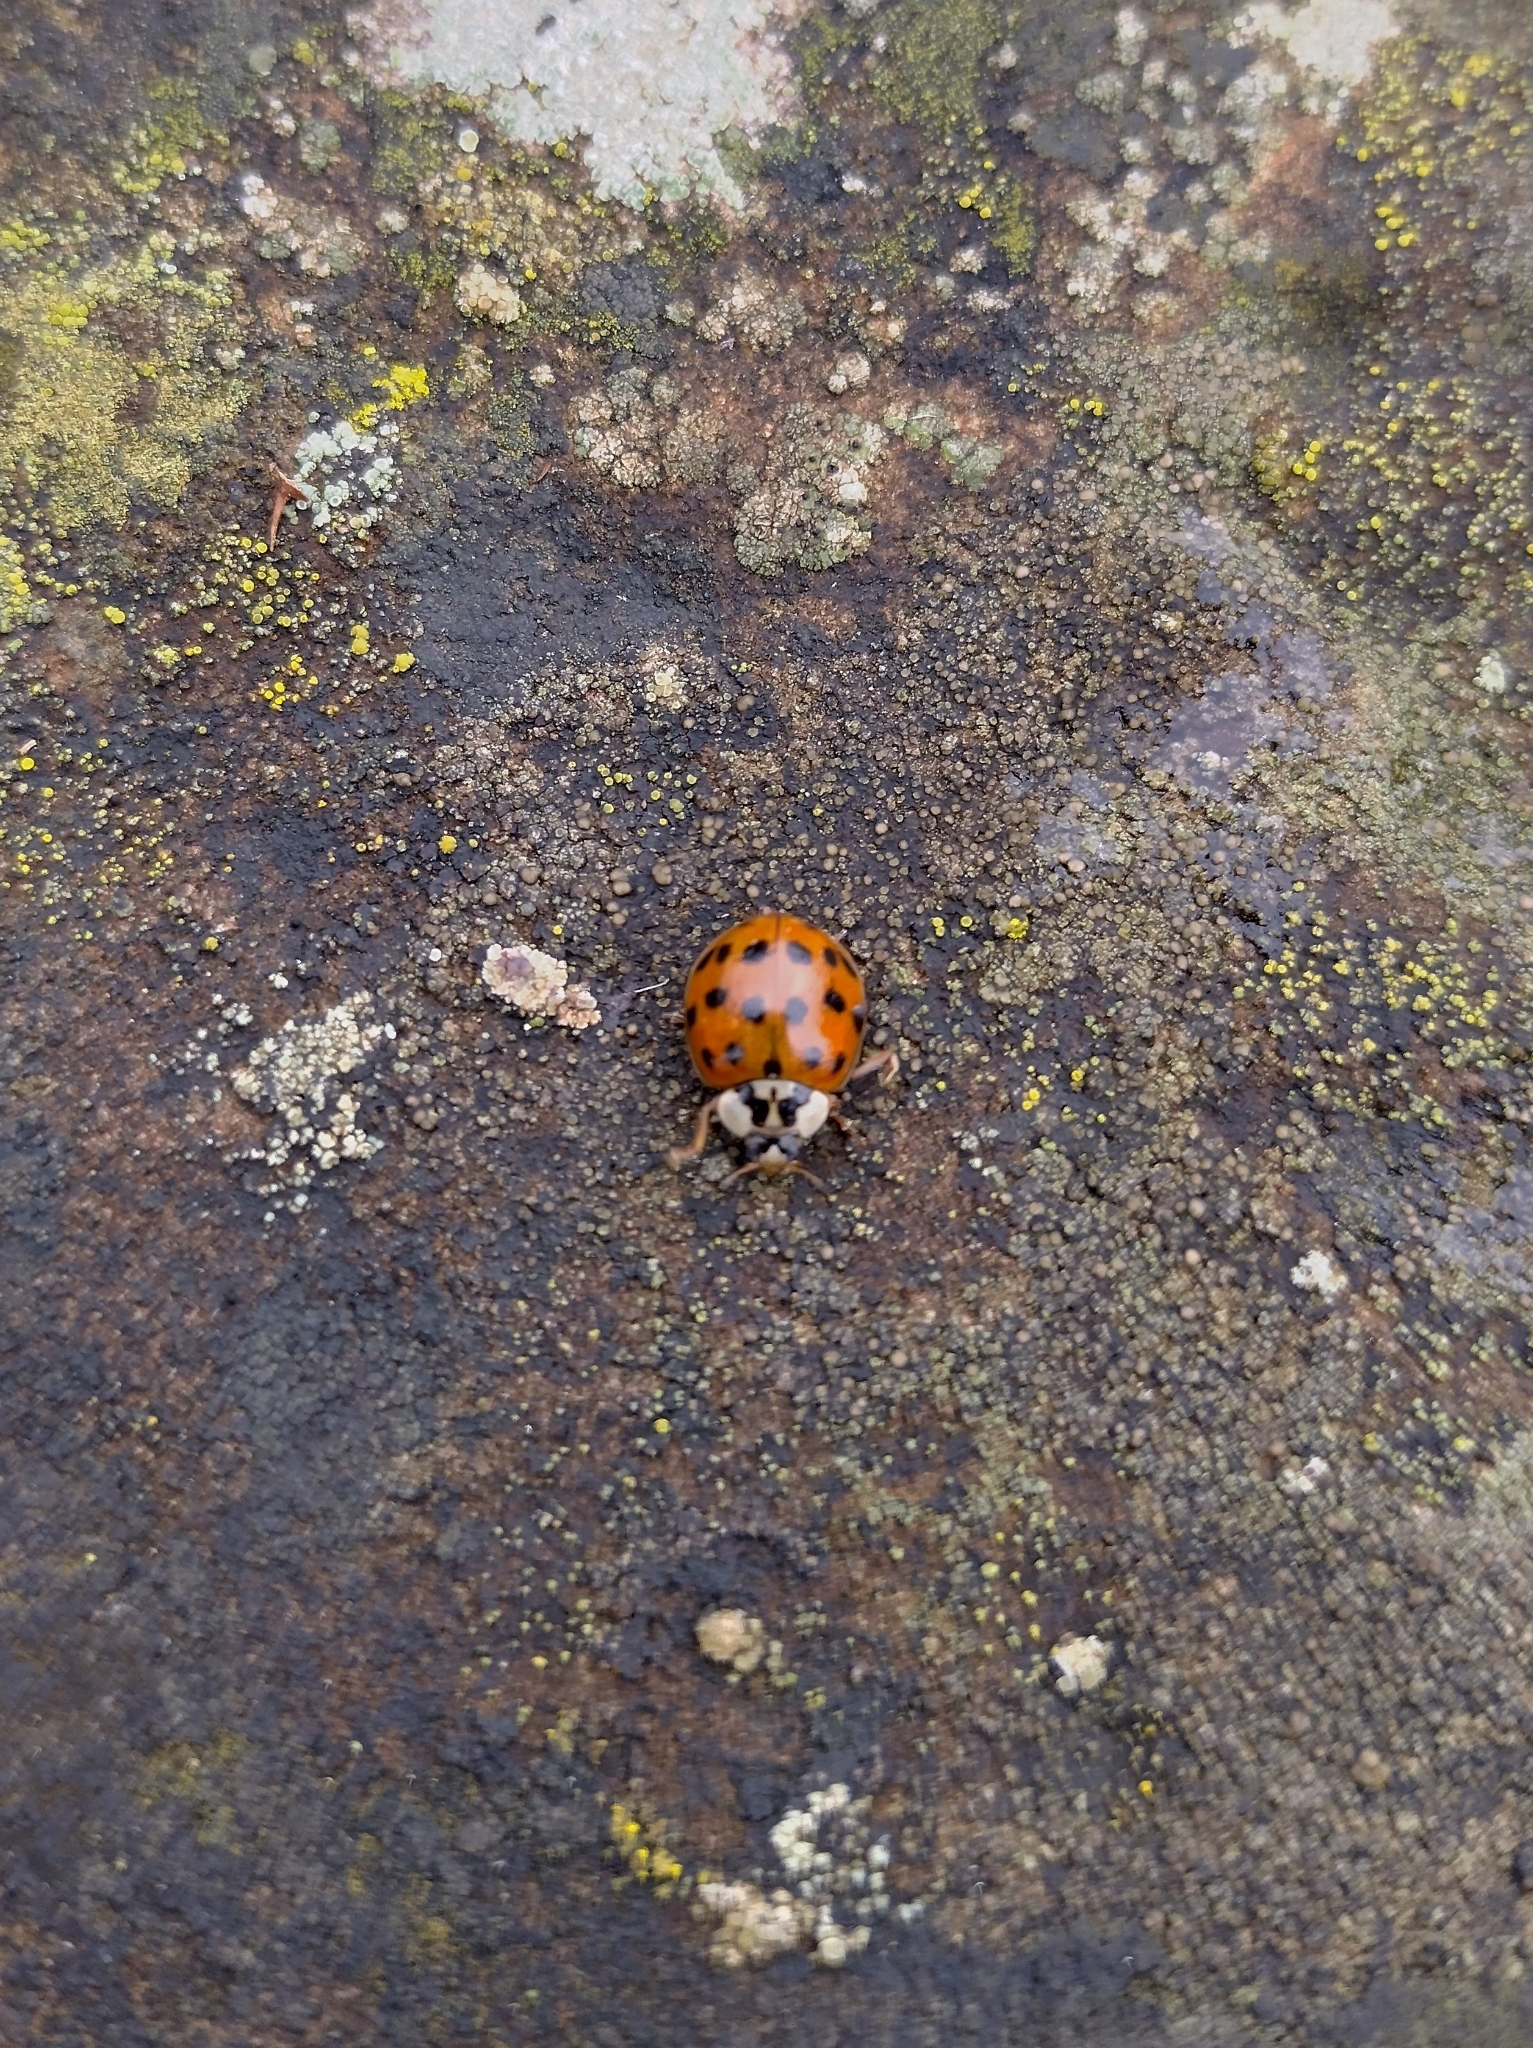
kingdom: Animalia
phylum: Arthropoda
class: Insecta
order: Coleoptera
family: Coccinellidae
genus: Harmonia
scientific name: Harmonia axyridis
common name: Harlequin ladybird
